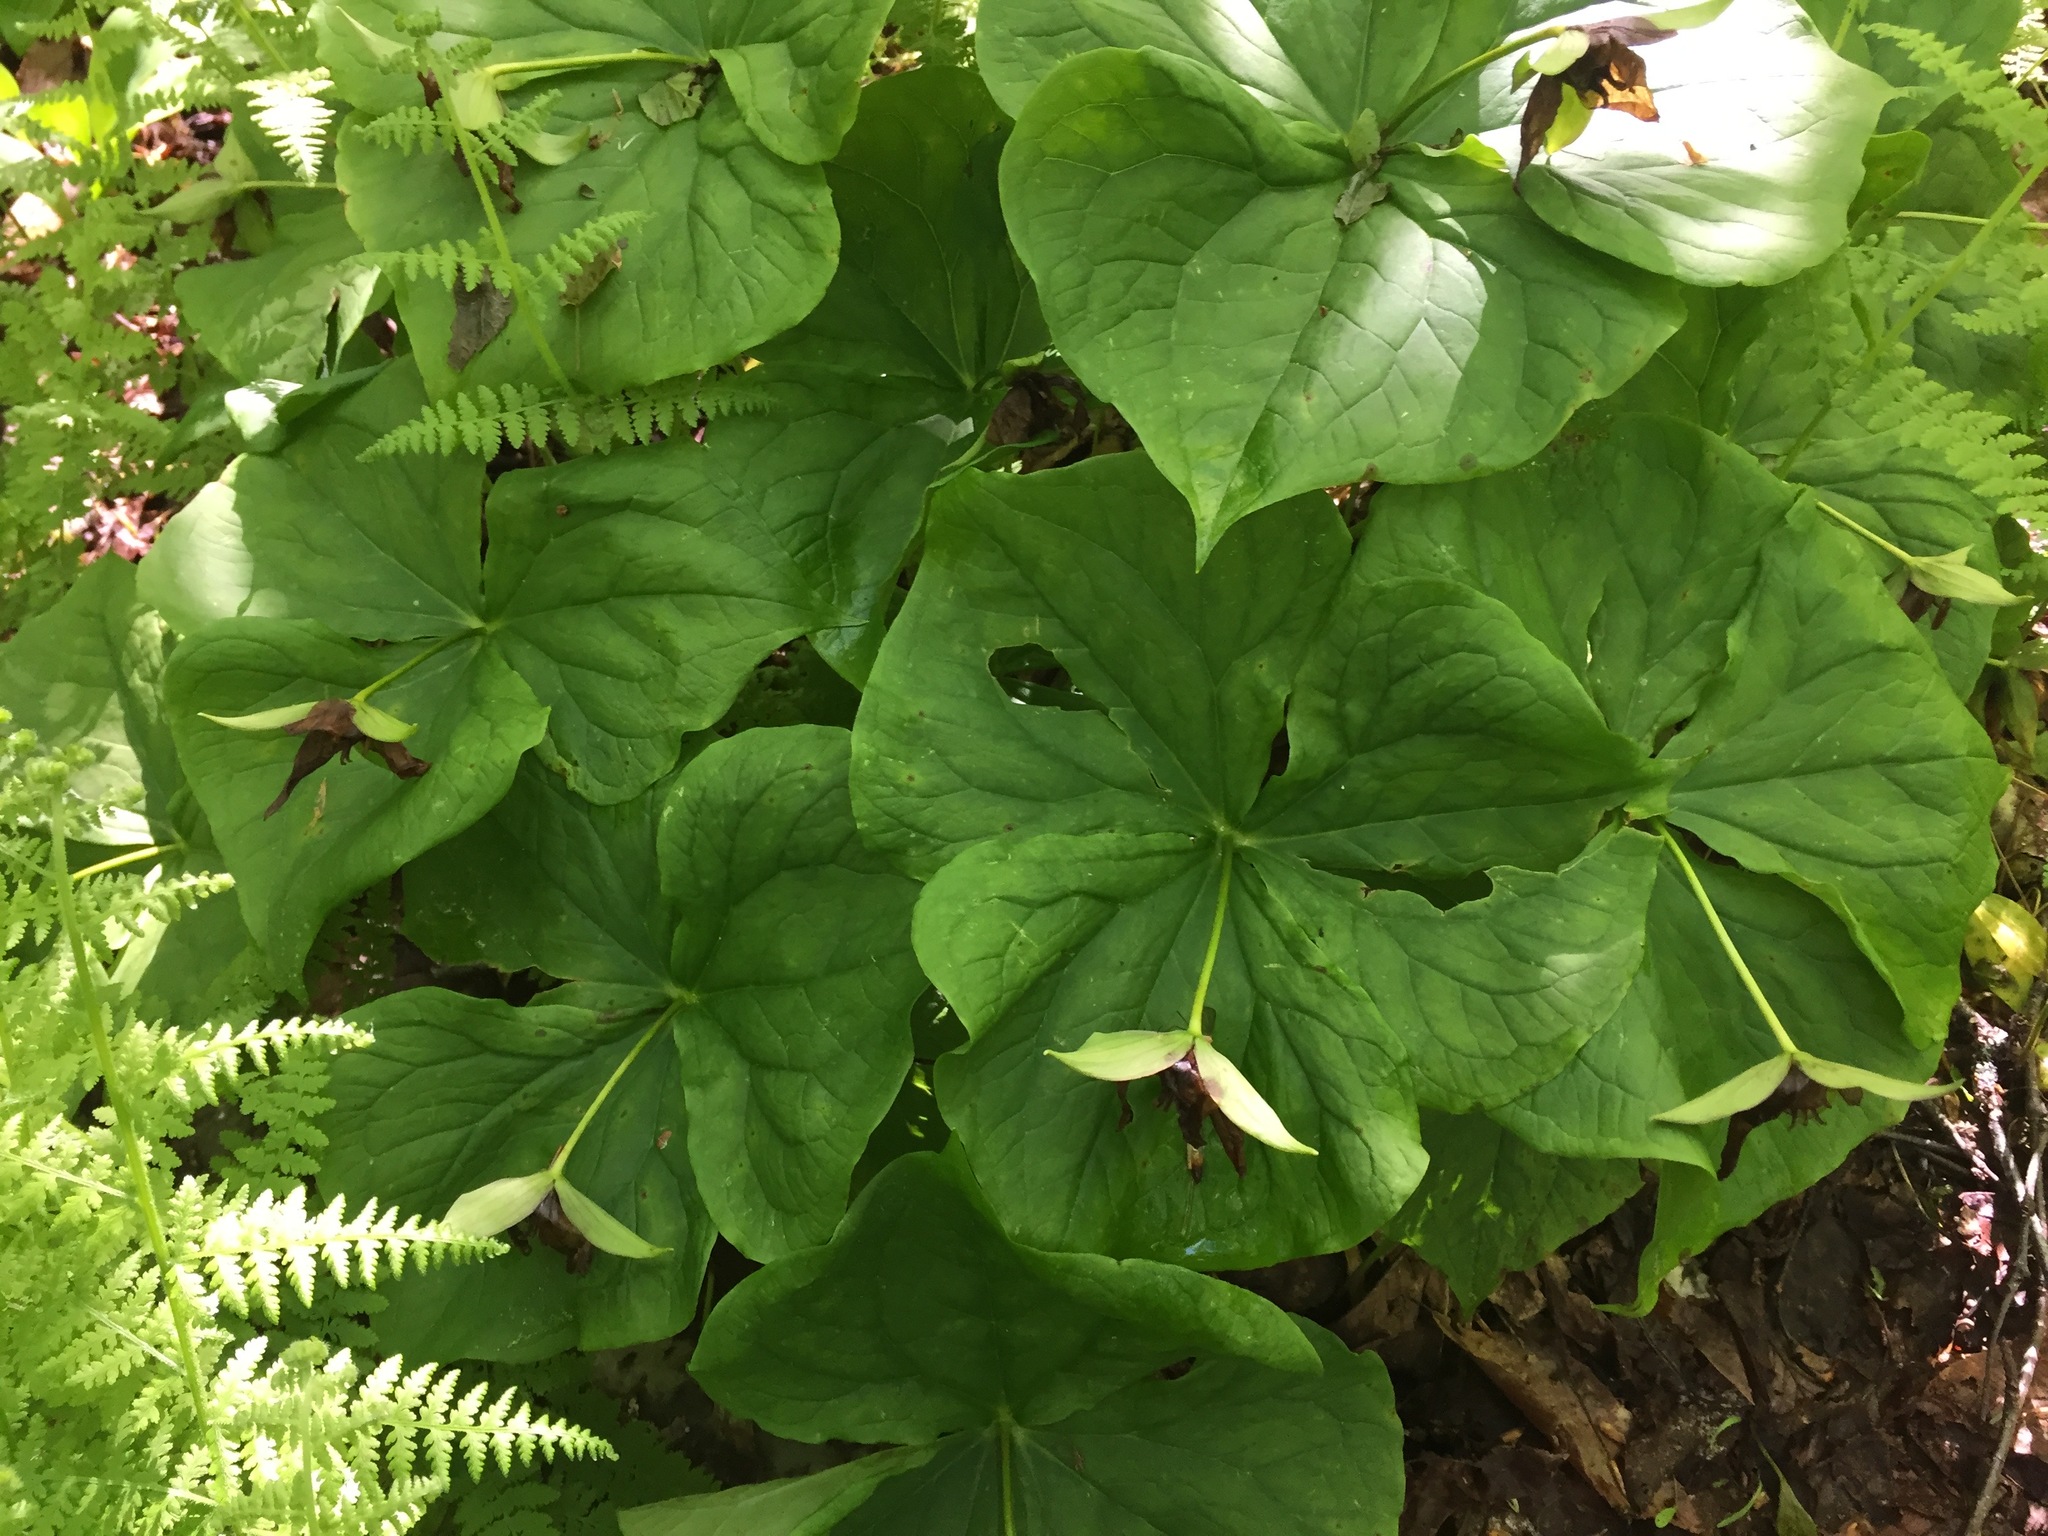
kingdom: Plantae
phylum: Tracheophyta
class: Liliopsida
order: Liliales
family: Melanthiaceae
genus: Trillium
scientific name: Trillium erectum
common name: Purple trillium
